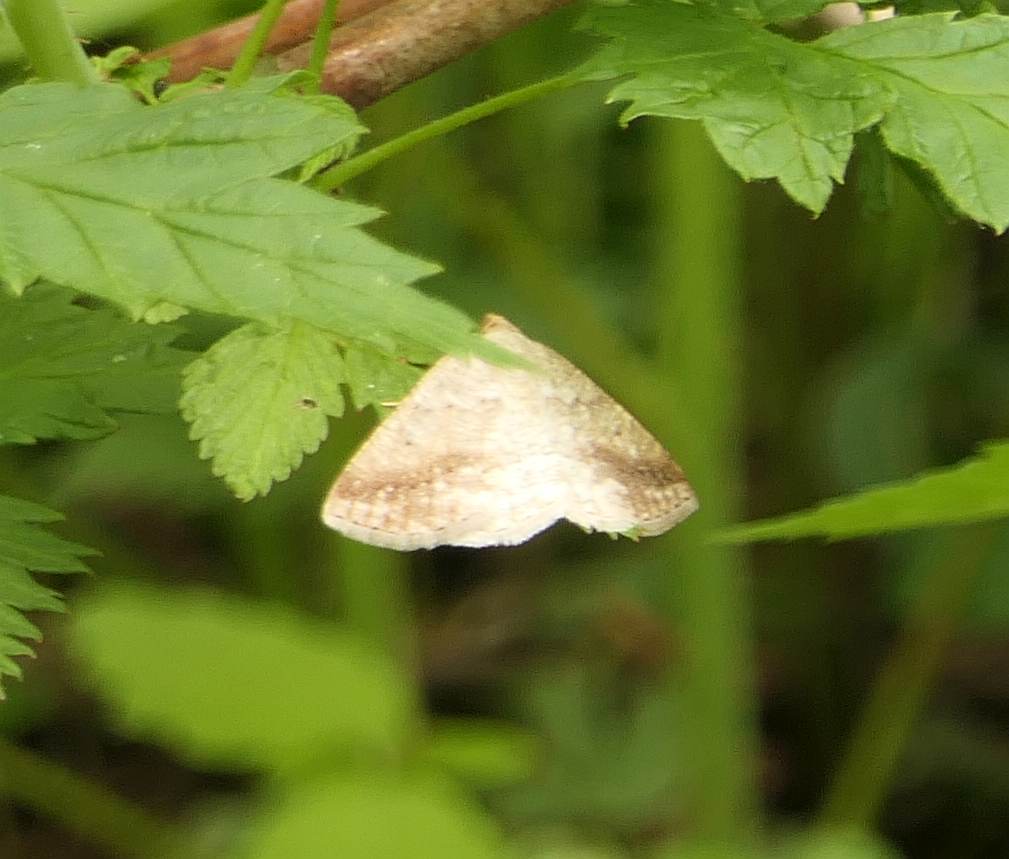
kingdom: Animalia
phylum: Arthropoda
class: Insecta
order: Lepidoptera
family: Geometridae
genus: Tacparia
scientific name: Tacparia detersata
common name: Pale alder moth
